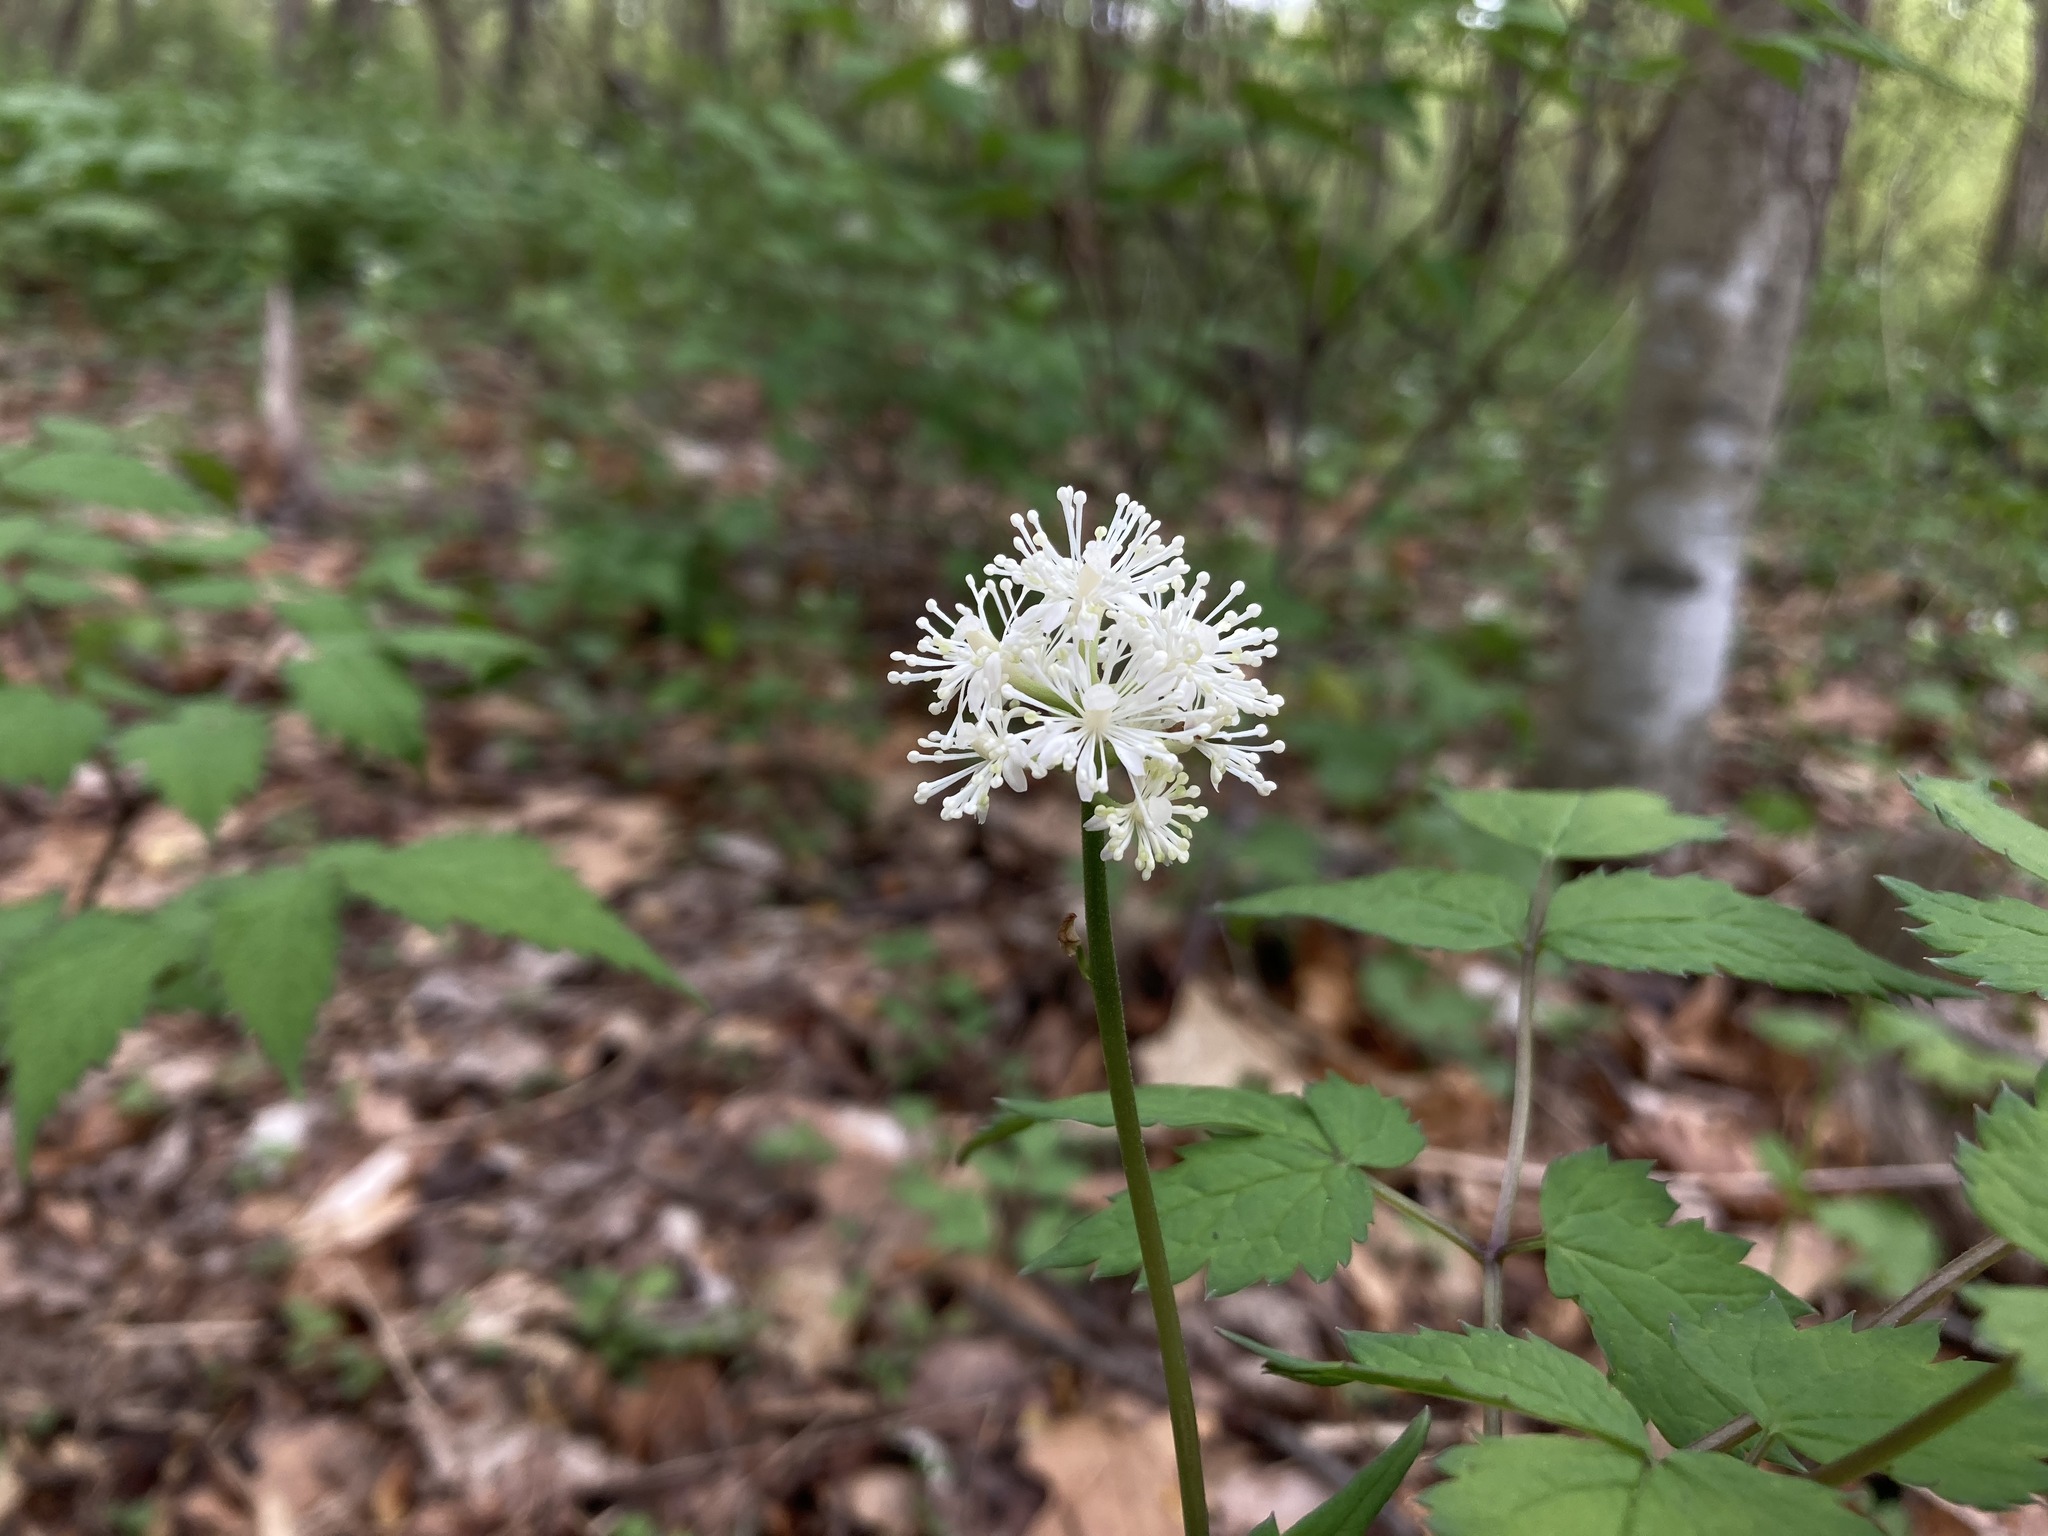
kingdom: Plantae
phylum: Tracheophyta
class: Magnoliopsida
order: Ranunculales
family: Ranunculaceae
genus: Actaea
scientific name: Actaea pachypoda
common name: Doll's-eyes
